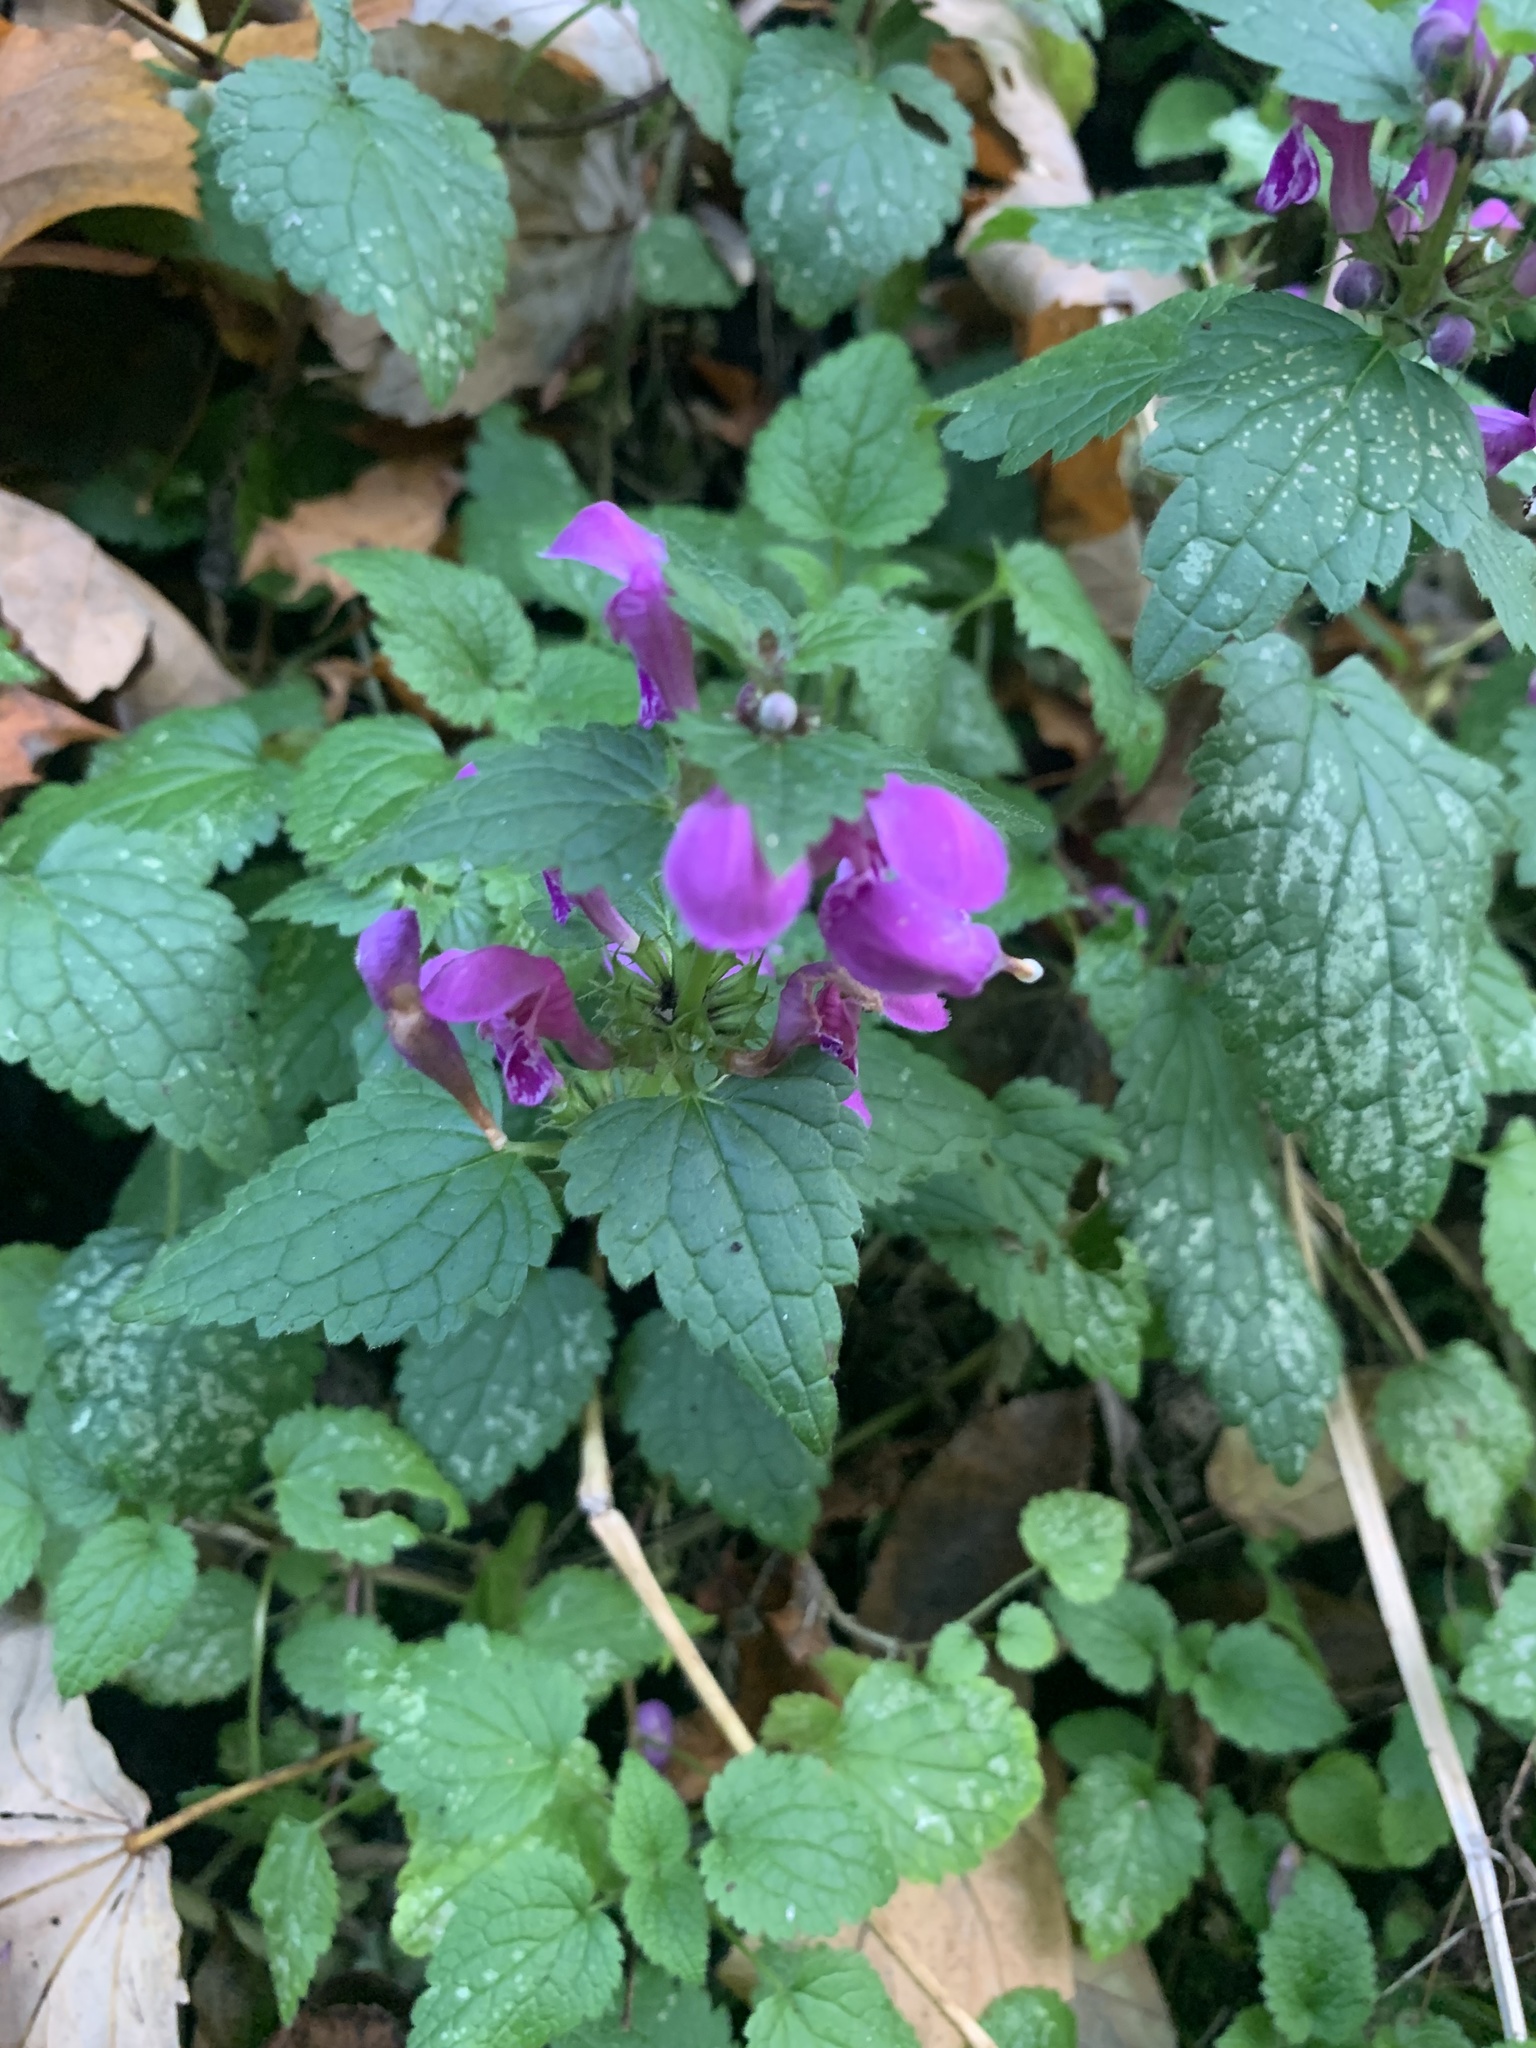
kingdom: Plantae
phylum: Tracheophyta
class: Magnoliopsida
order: Lamiales
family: Lamiaceae
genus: Lamium
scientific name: Lamium maculatum
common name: Spotted dead-nettle
